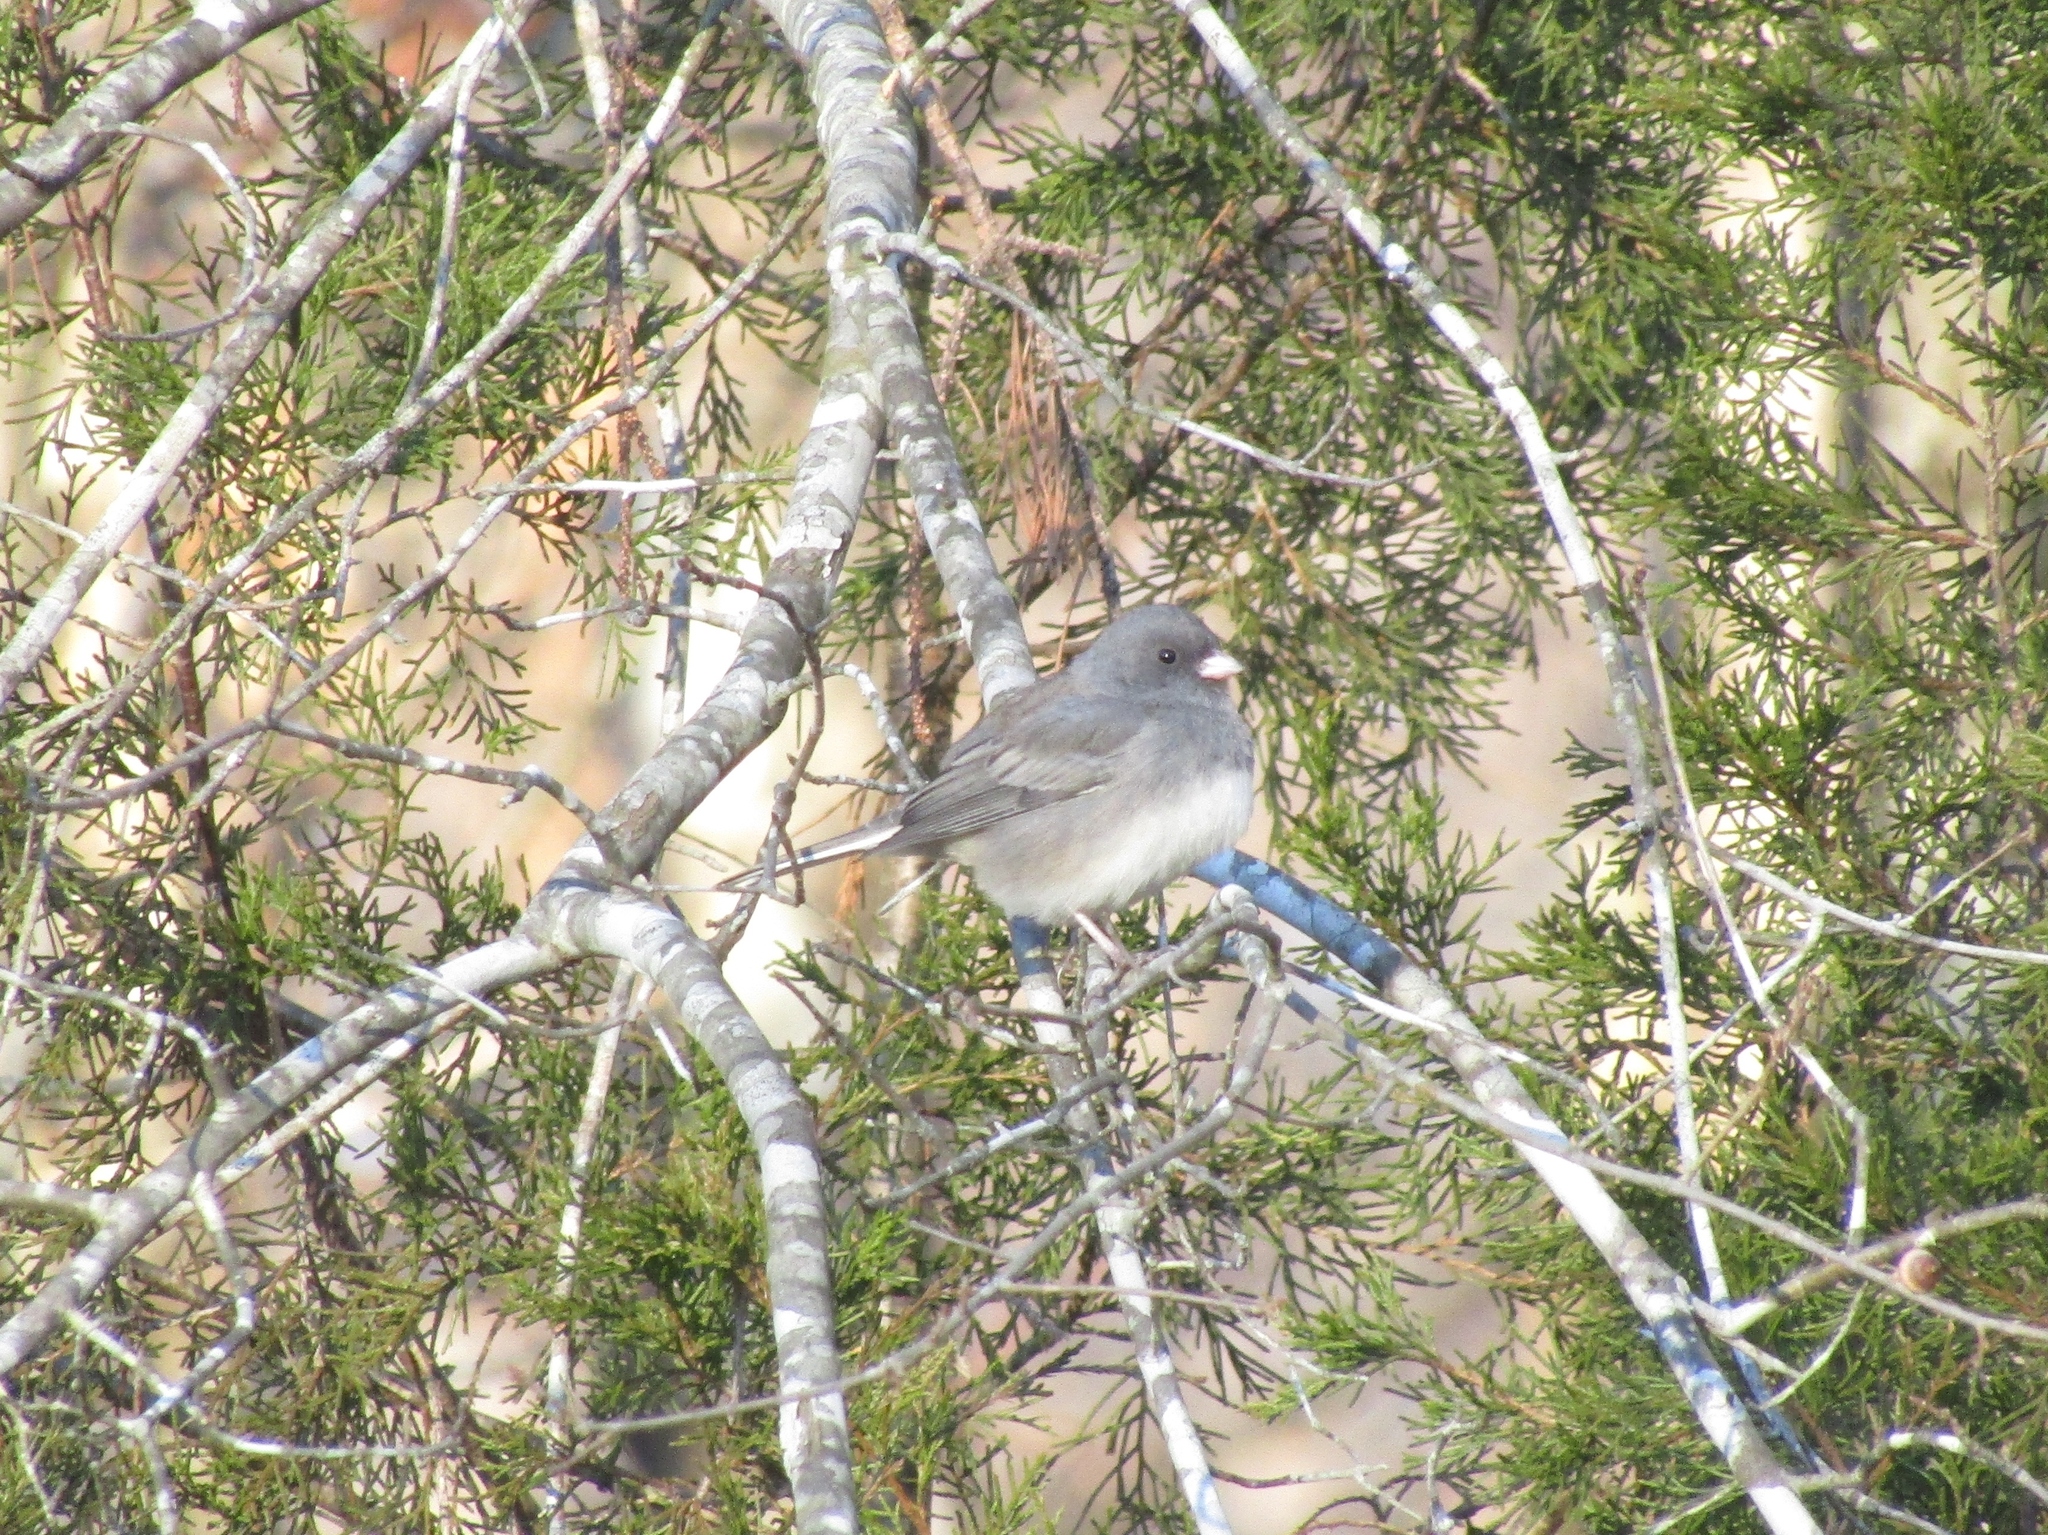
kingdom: Animalia
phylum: Chordata
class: Aves
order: Passeriformes
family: Passerellidae
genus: Junco
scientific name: Junco hyemalis
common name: Dark-eyed junco
